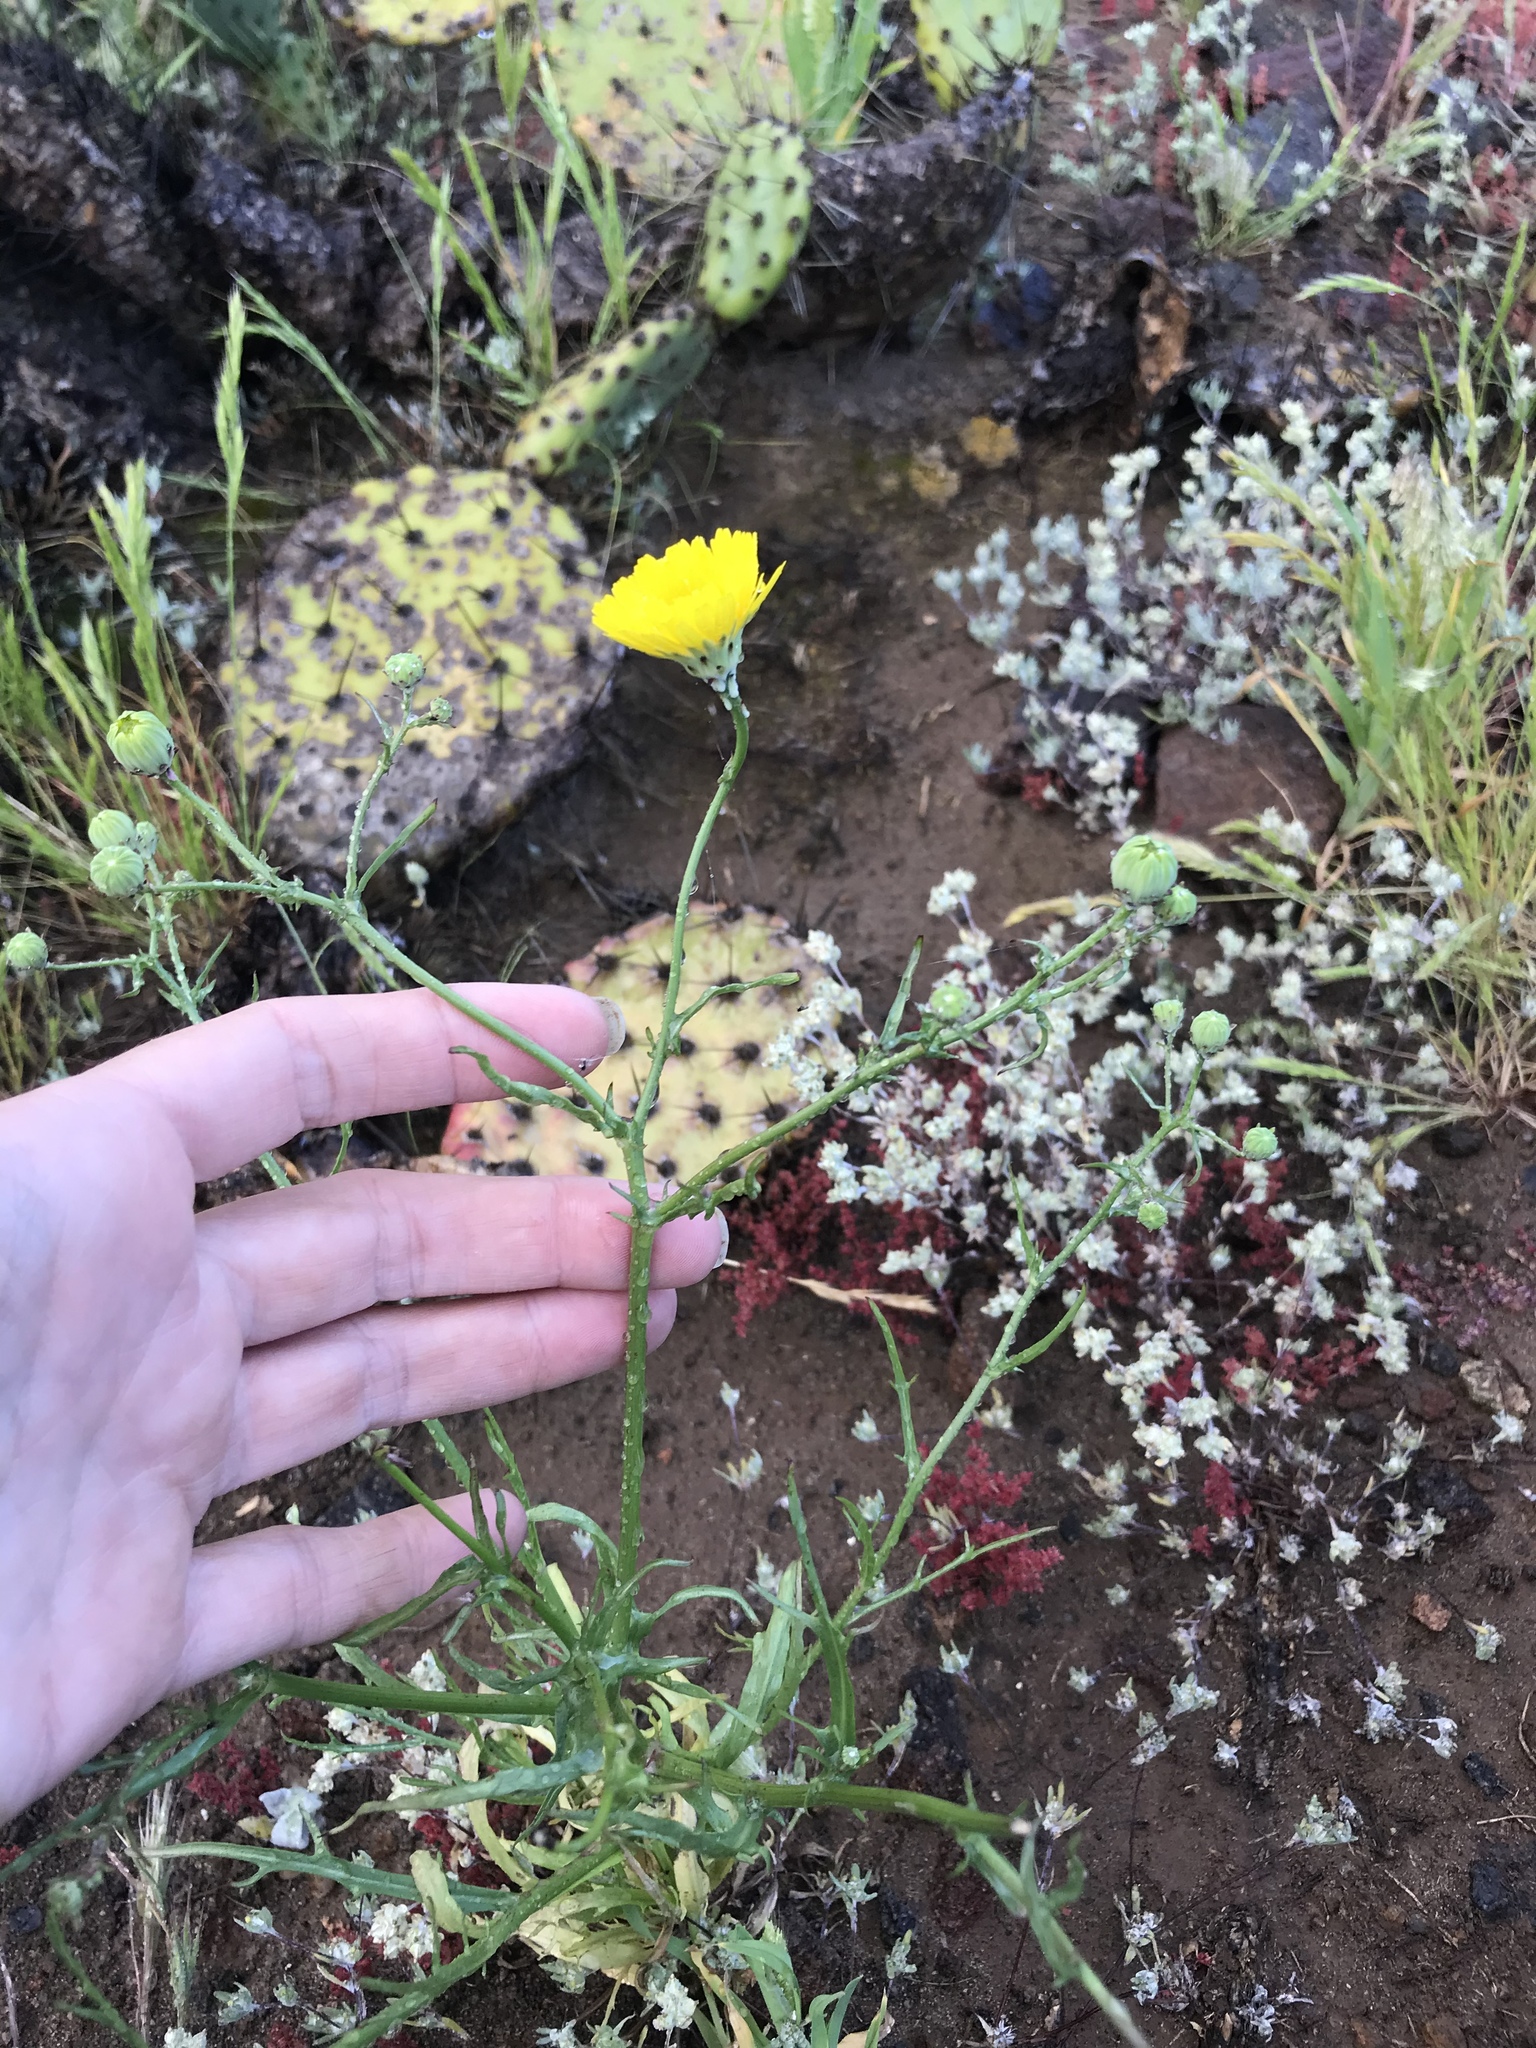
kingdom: Plantae
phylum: Tracheophyta
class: Magnoliopsida
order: Asterales
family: Asteraceae
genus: Malacothrix
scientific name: Malacothrix foliosa
